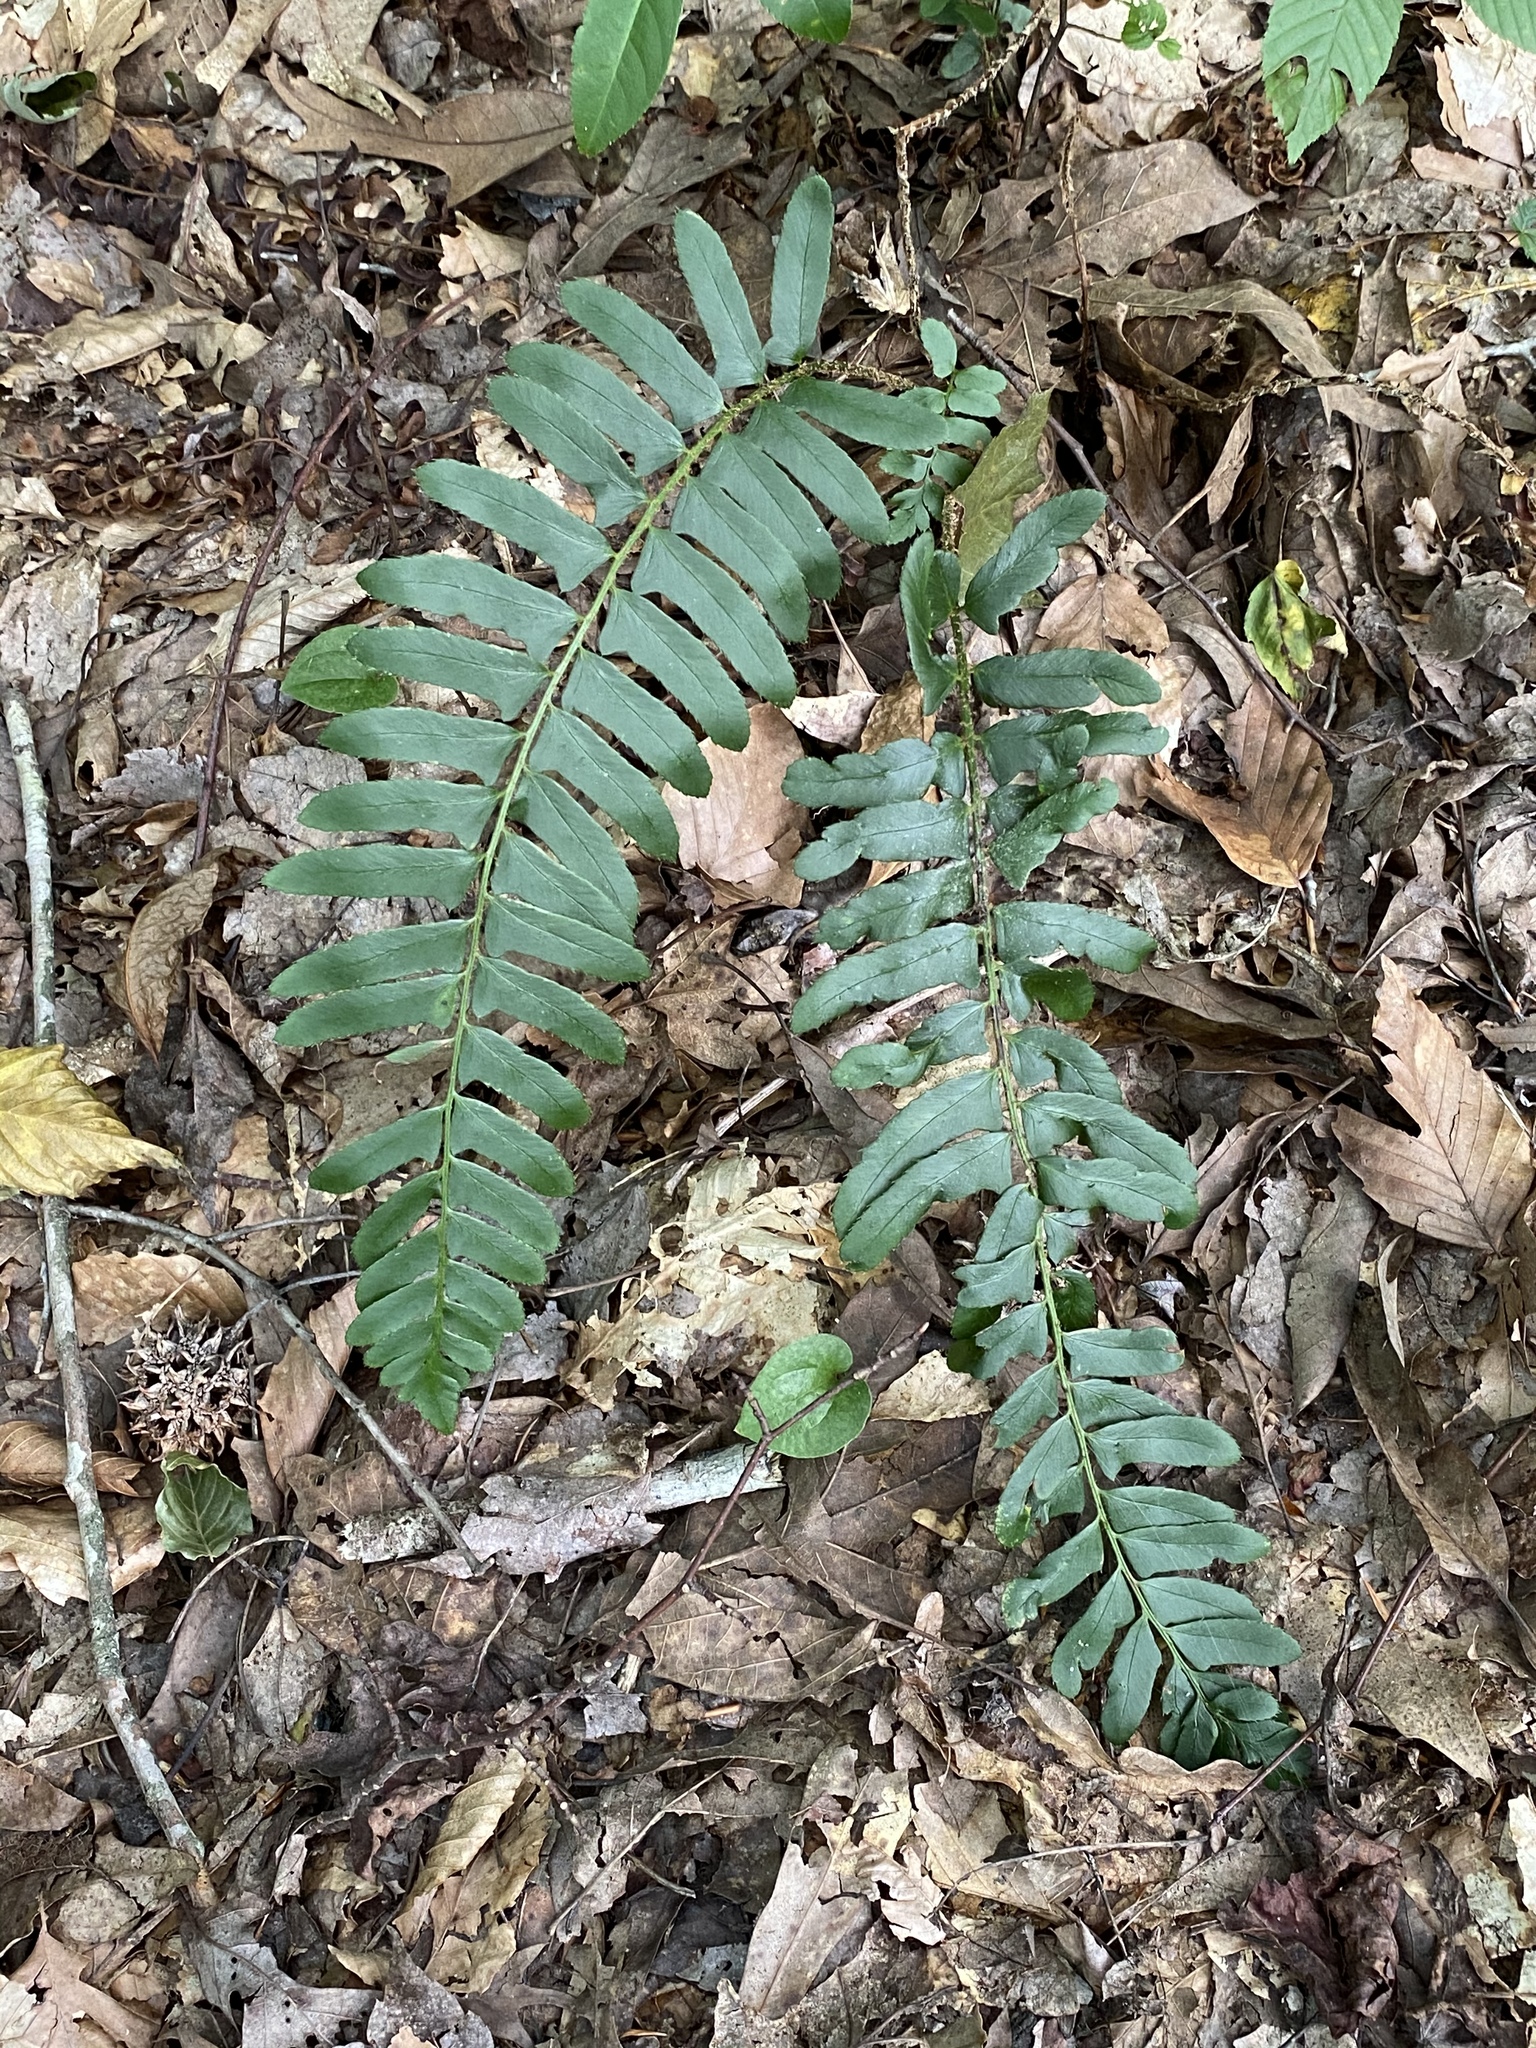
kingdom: Plantae
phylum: Tracheophyta
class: Polypodiopsida
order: Polypodiales
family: Dryopteridaceae
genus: Polystichum
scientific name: Polystichum acrostichoides
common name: Christmas fern
